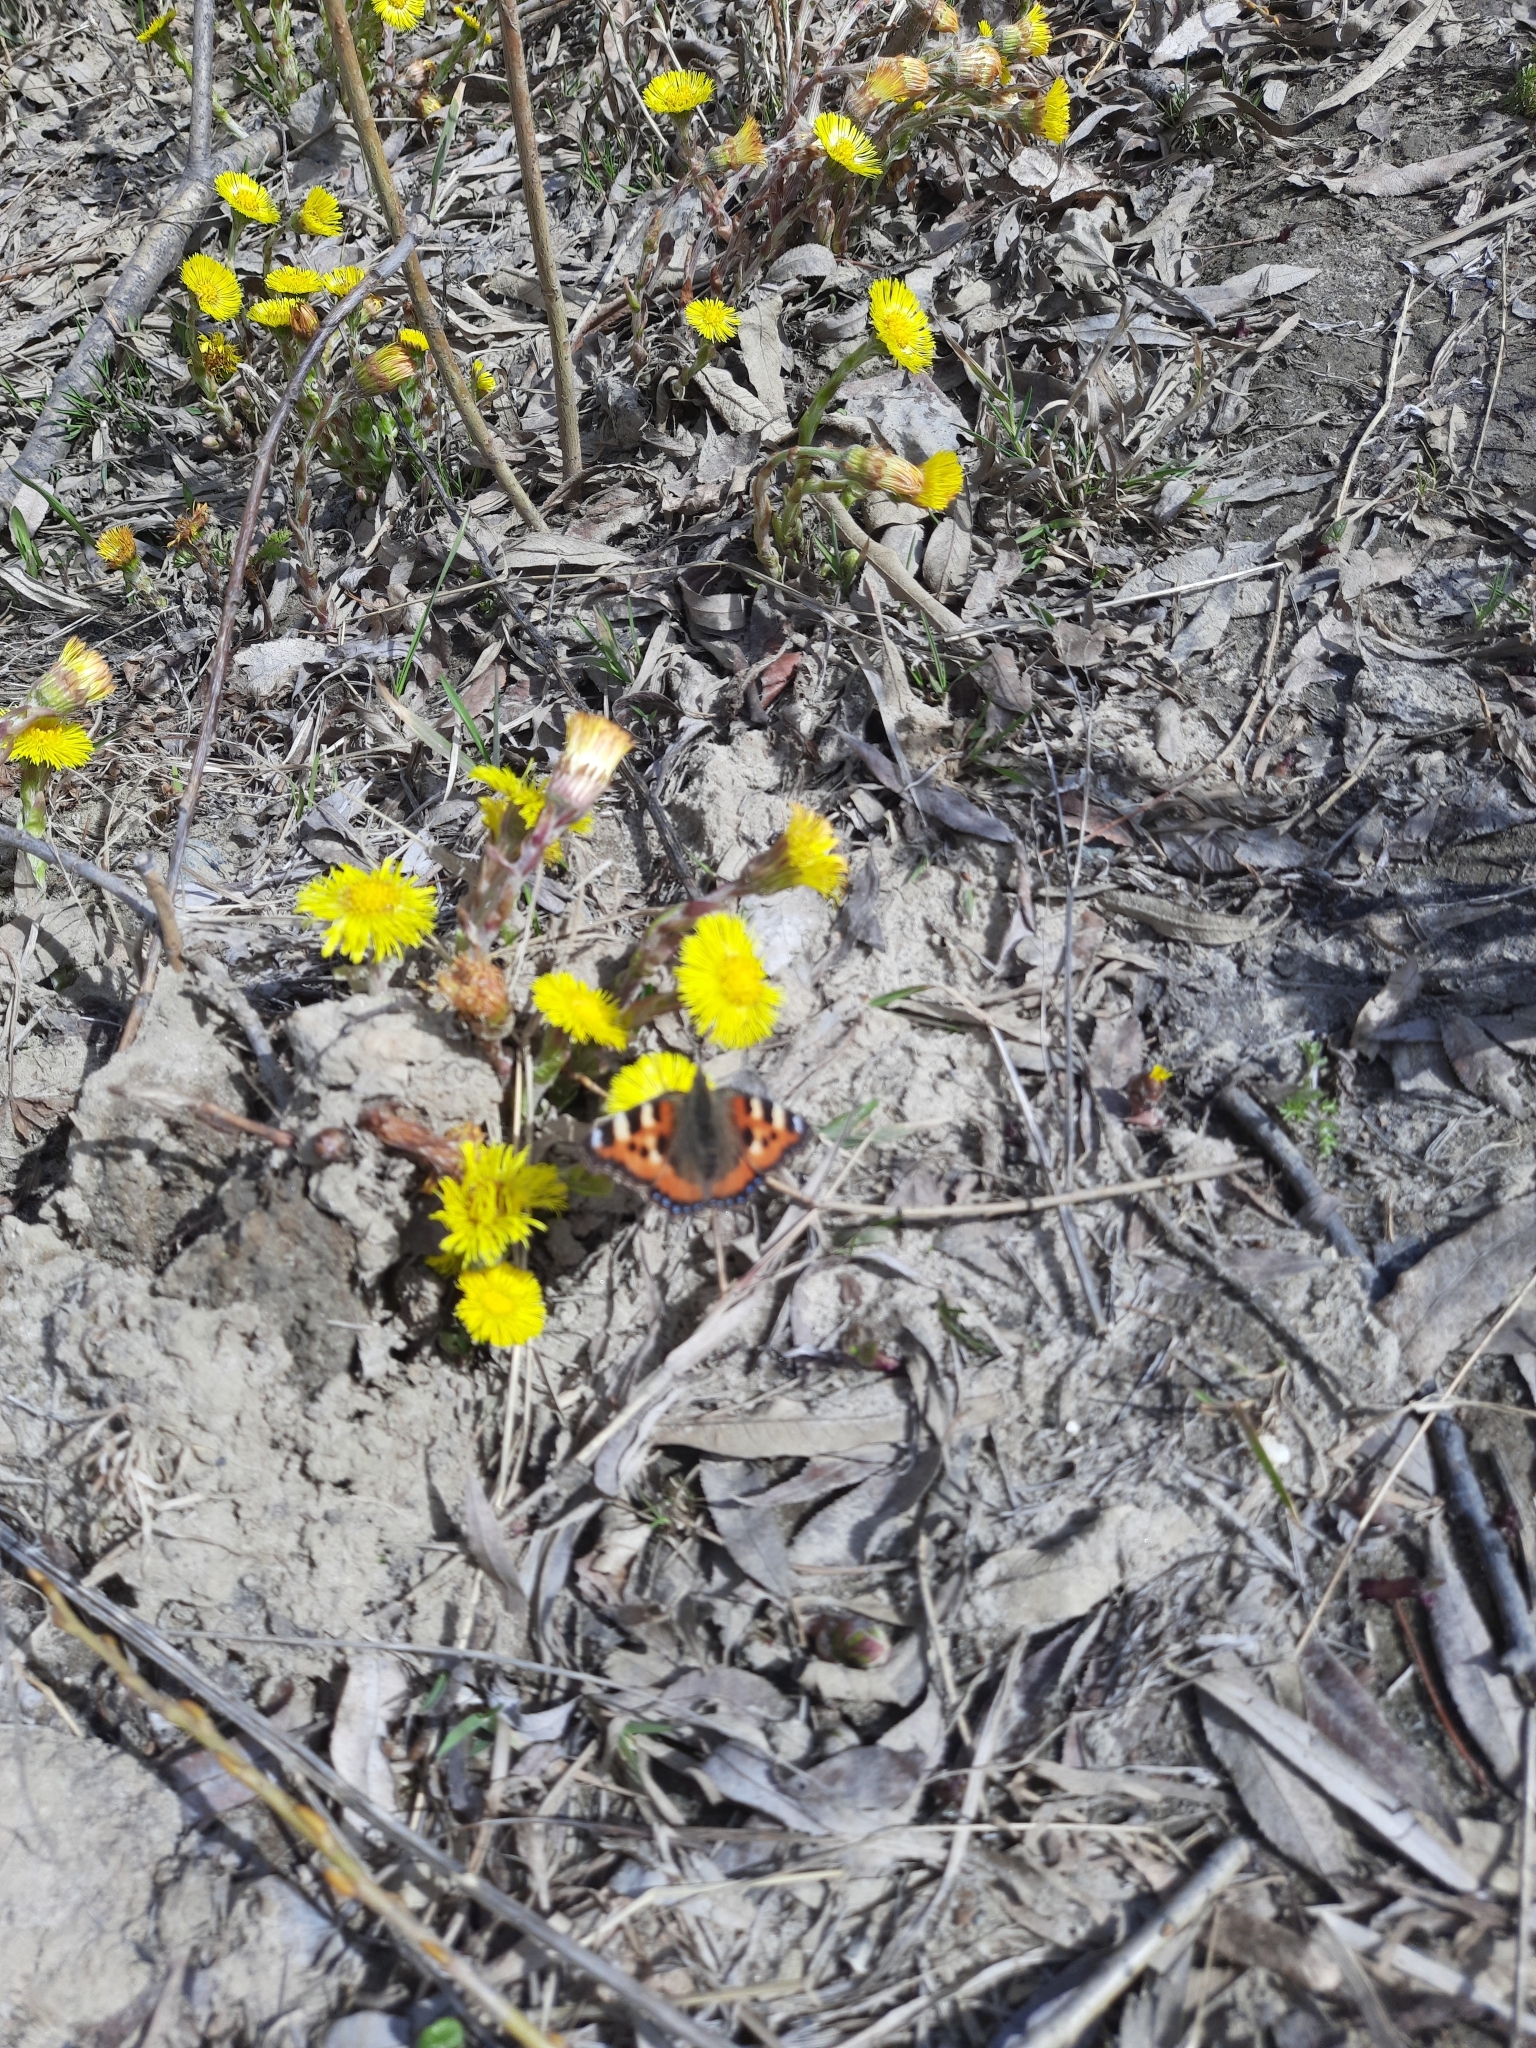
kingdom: Animalia
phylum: Arthropoda
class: Insecta
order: Lepidoptera
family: Nymphalidae
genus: Aglais
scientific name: Aglais urticae
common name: Small tortoiseshell
